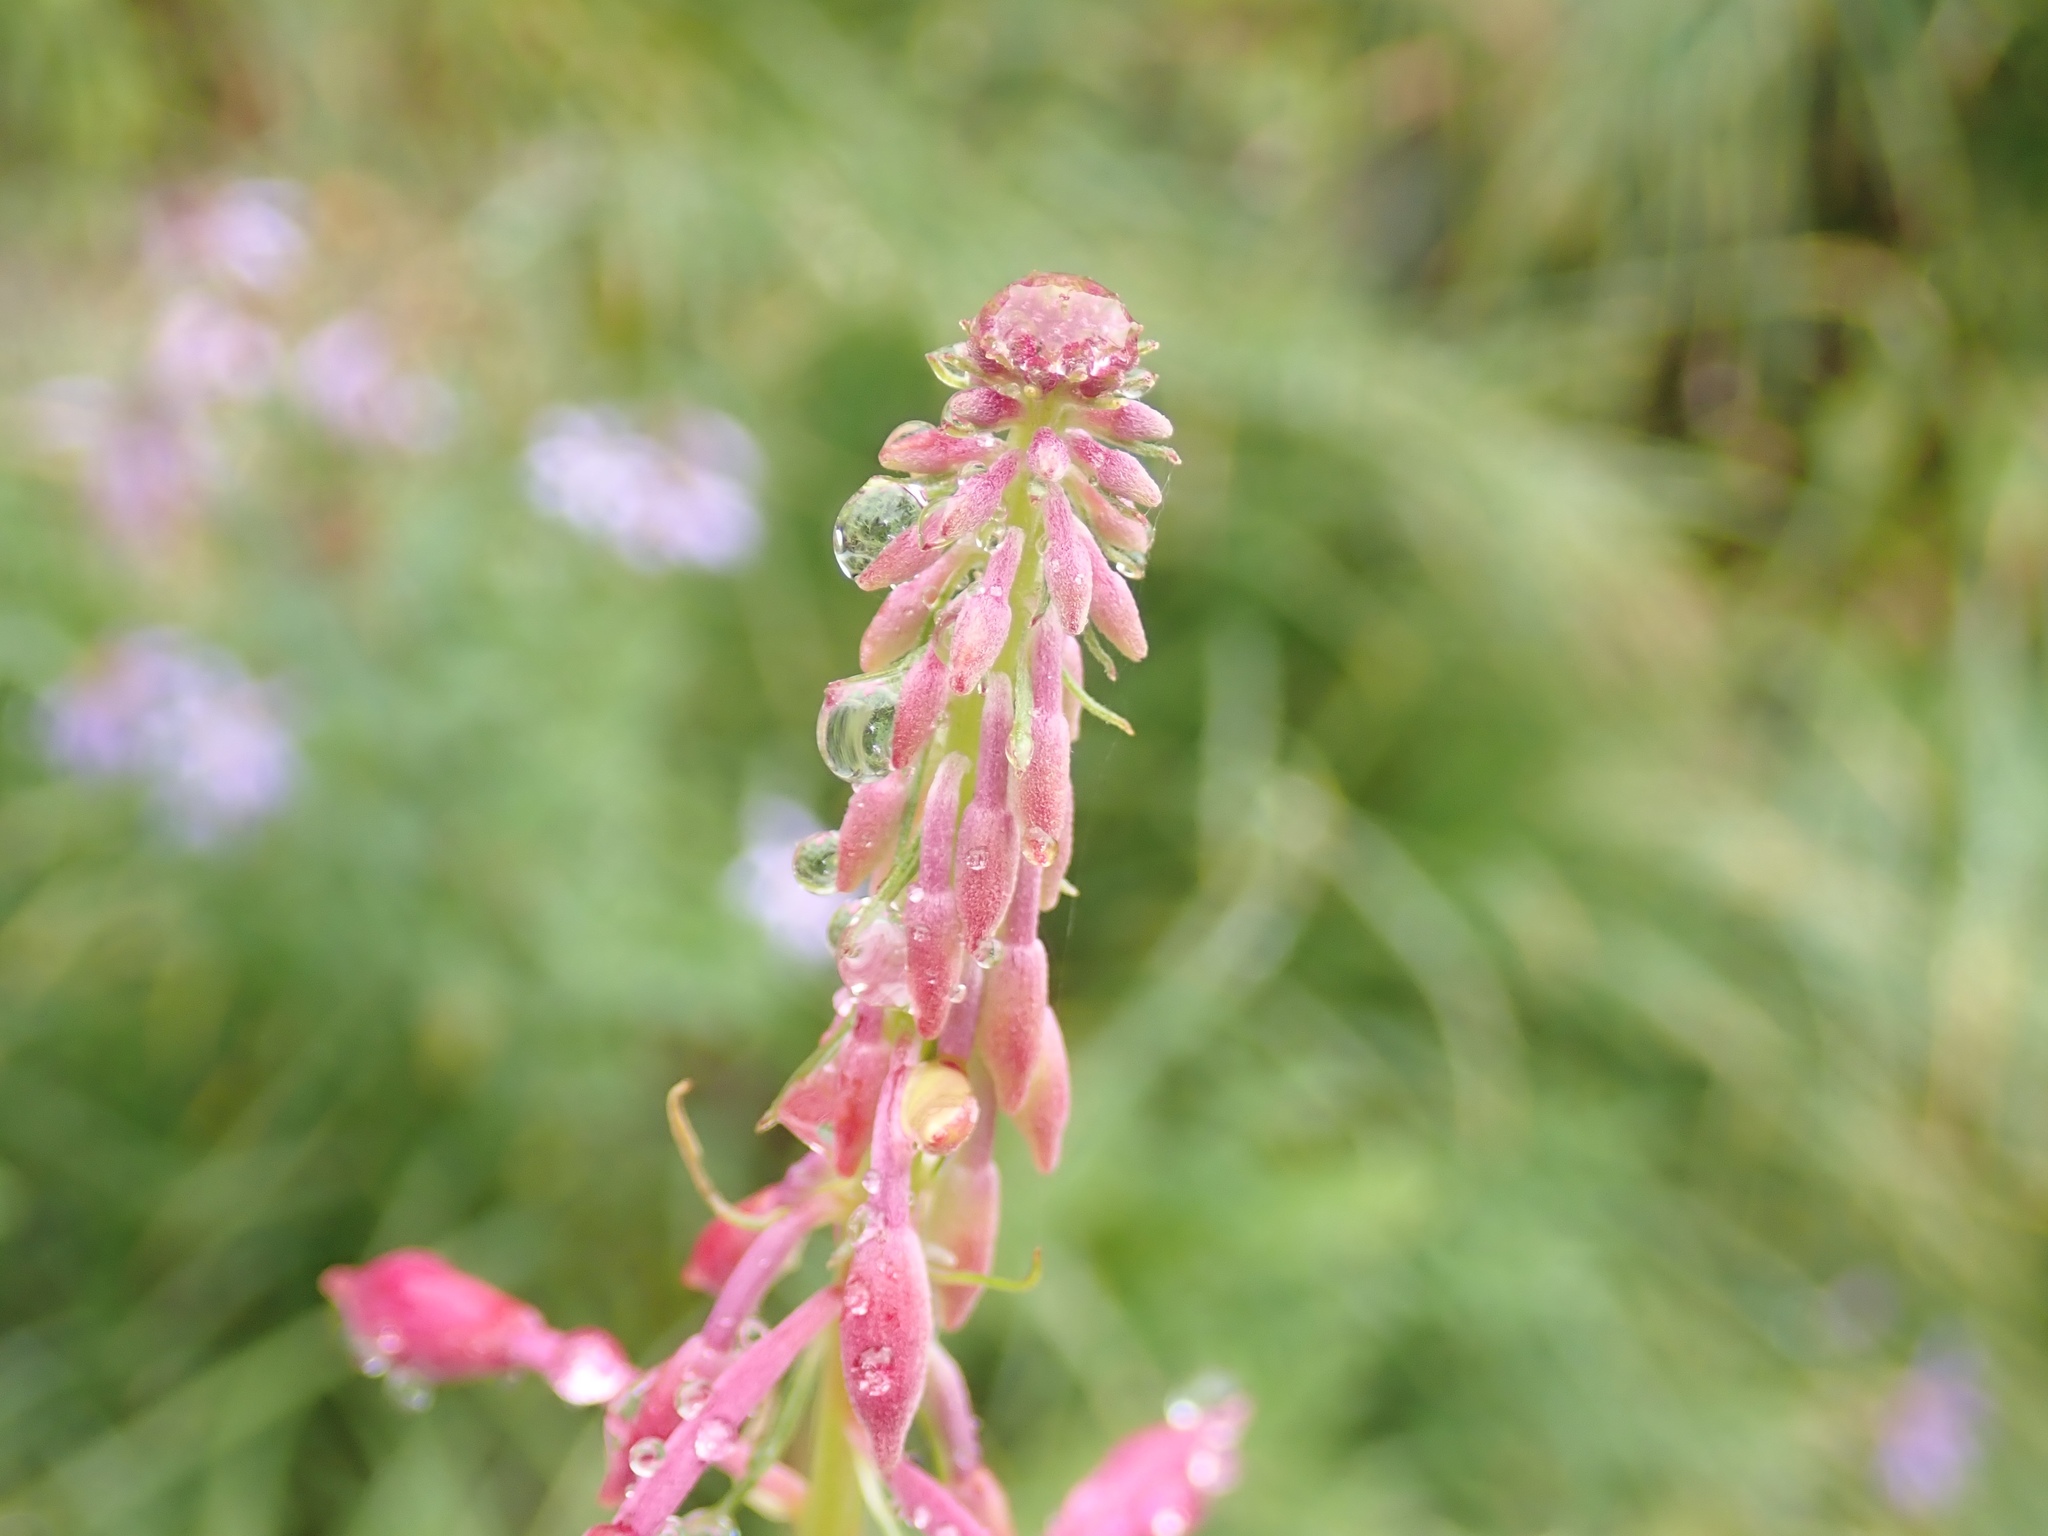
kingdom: Plantae
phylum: Tracheophyta
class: Magnoliopsida
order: Myrtales
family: Onagraceae
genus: Chamaenerion
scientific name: Chamaenerion angustifolium
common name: Fireweed
